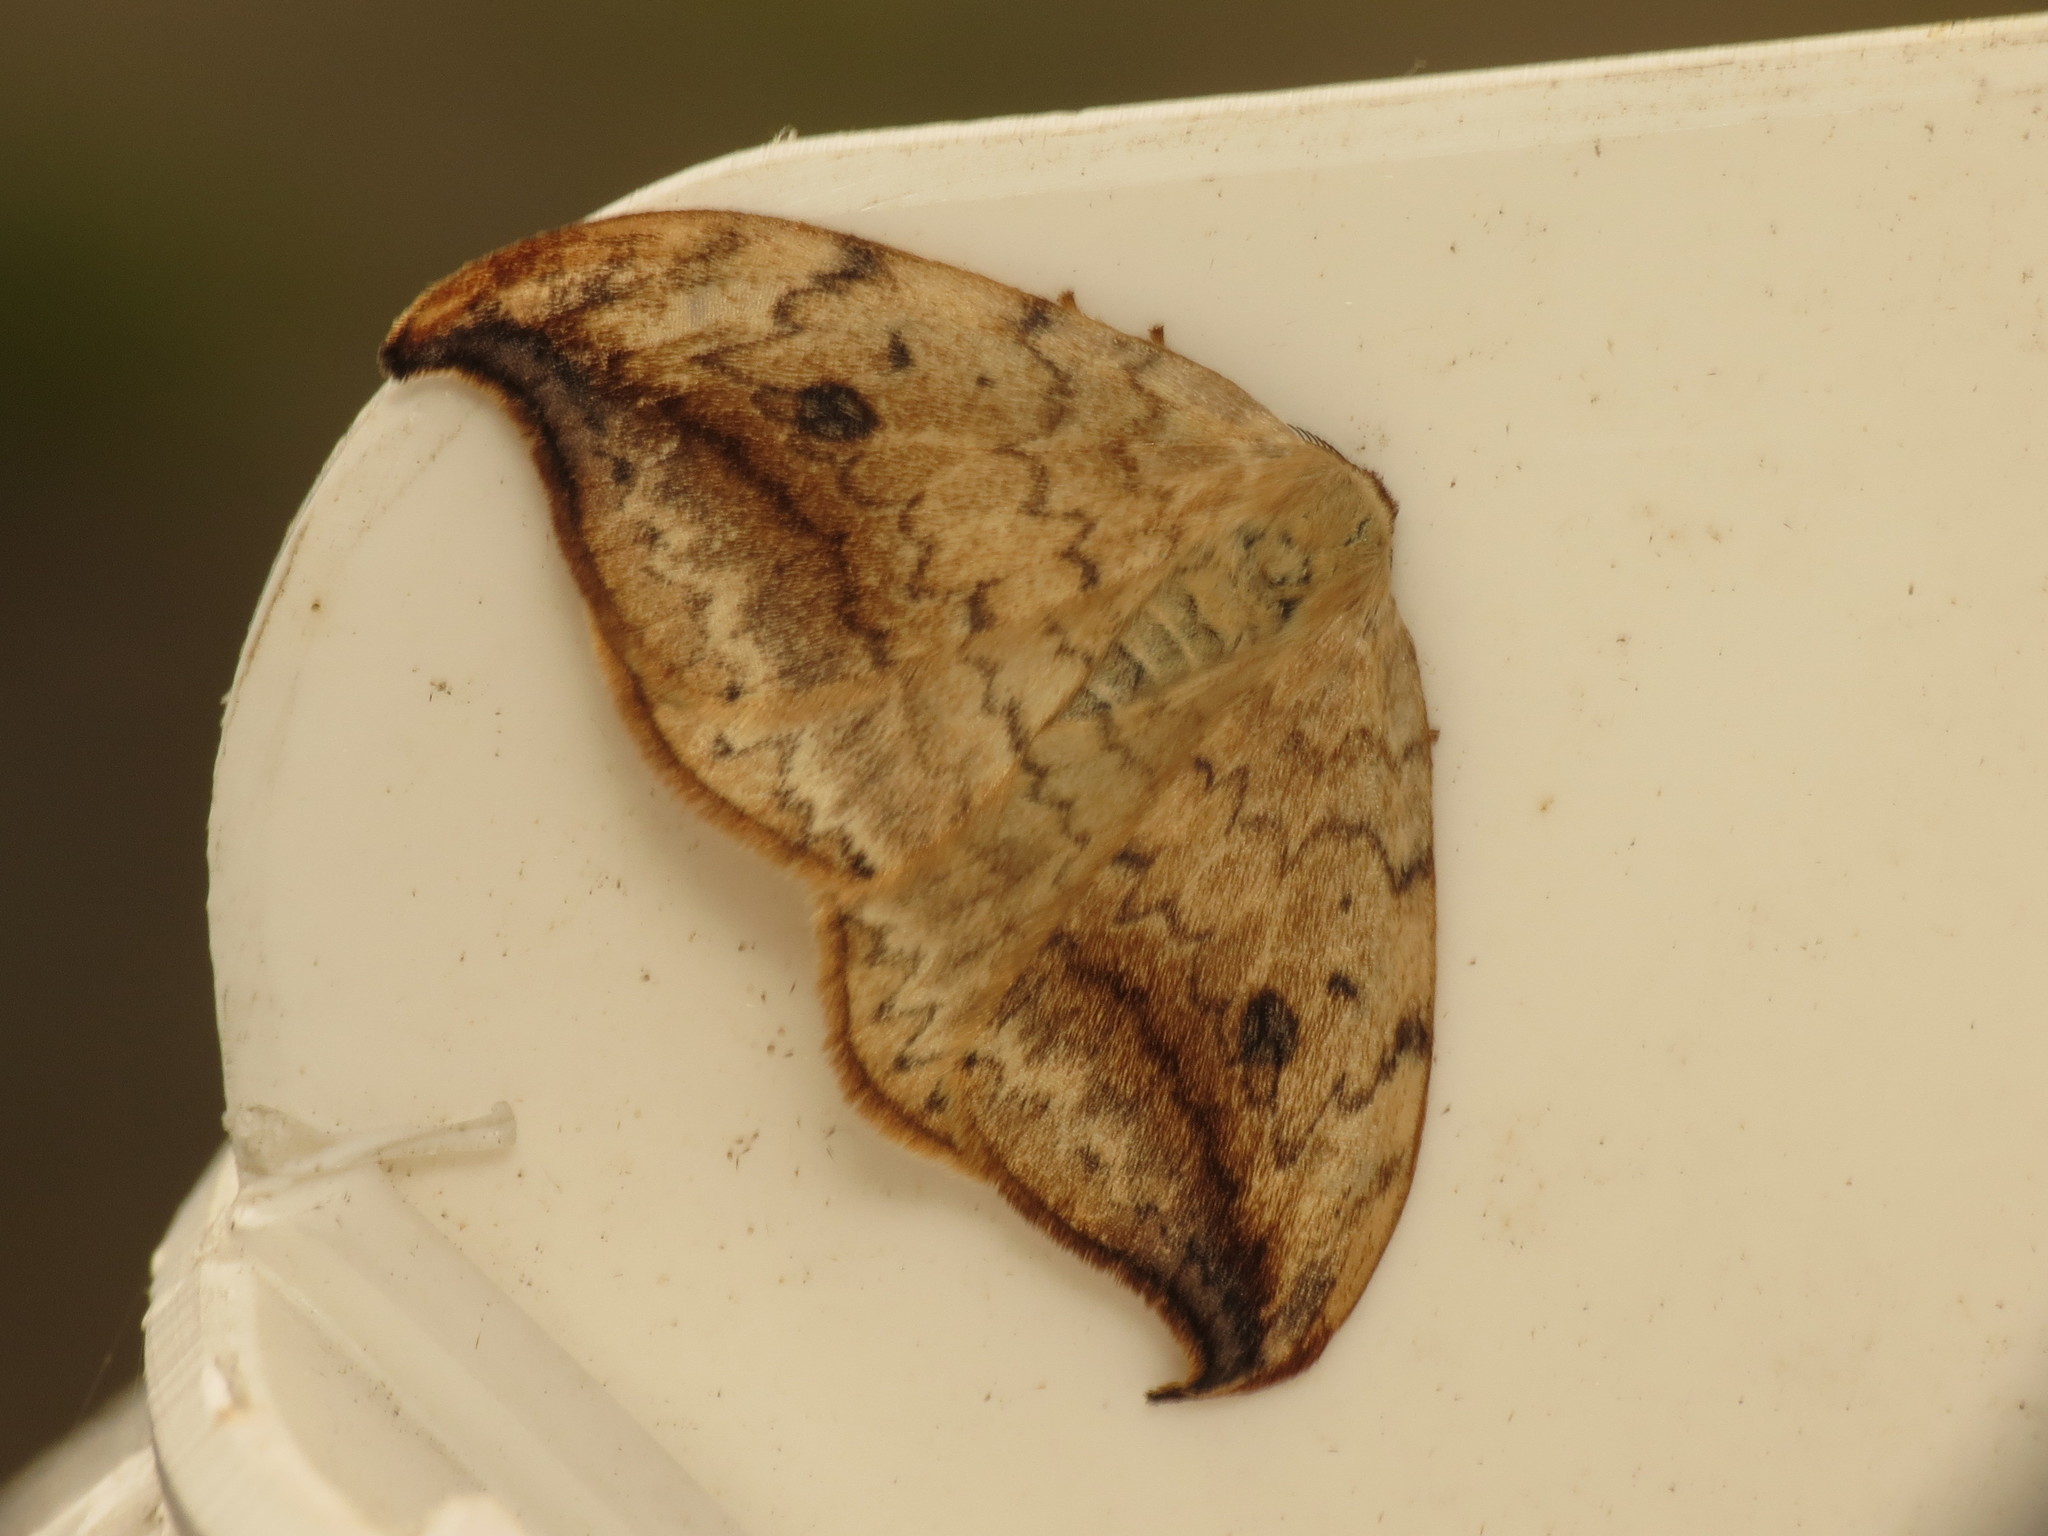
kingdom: Animalia
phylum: Arthropoda
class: Insecta
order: Lepidoptera
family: Drepanidae
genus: Drepana
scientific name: Drepana falcataria
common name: Pebble hook-tip
